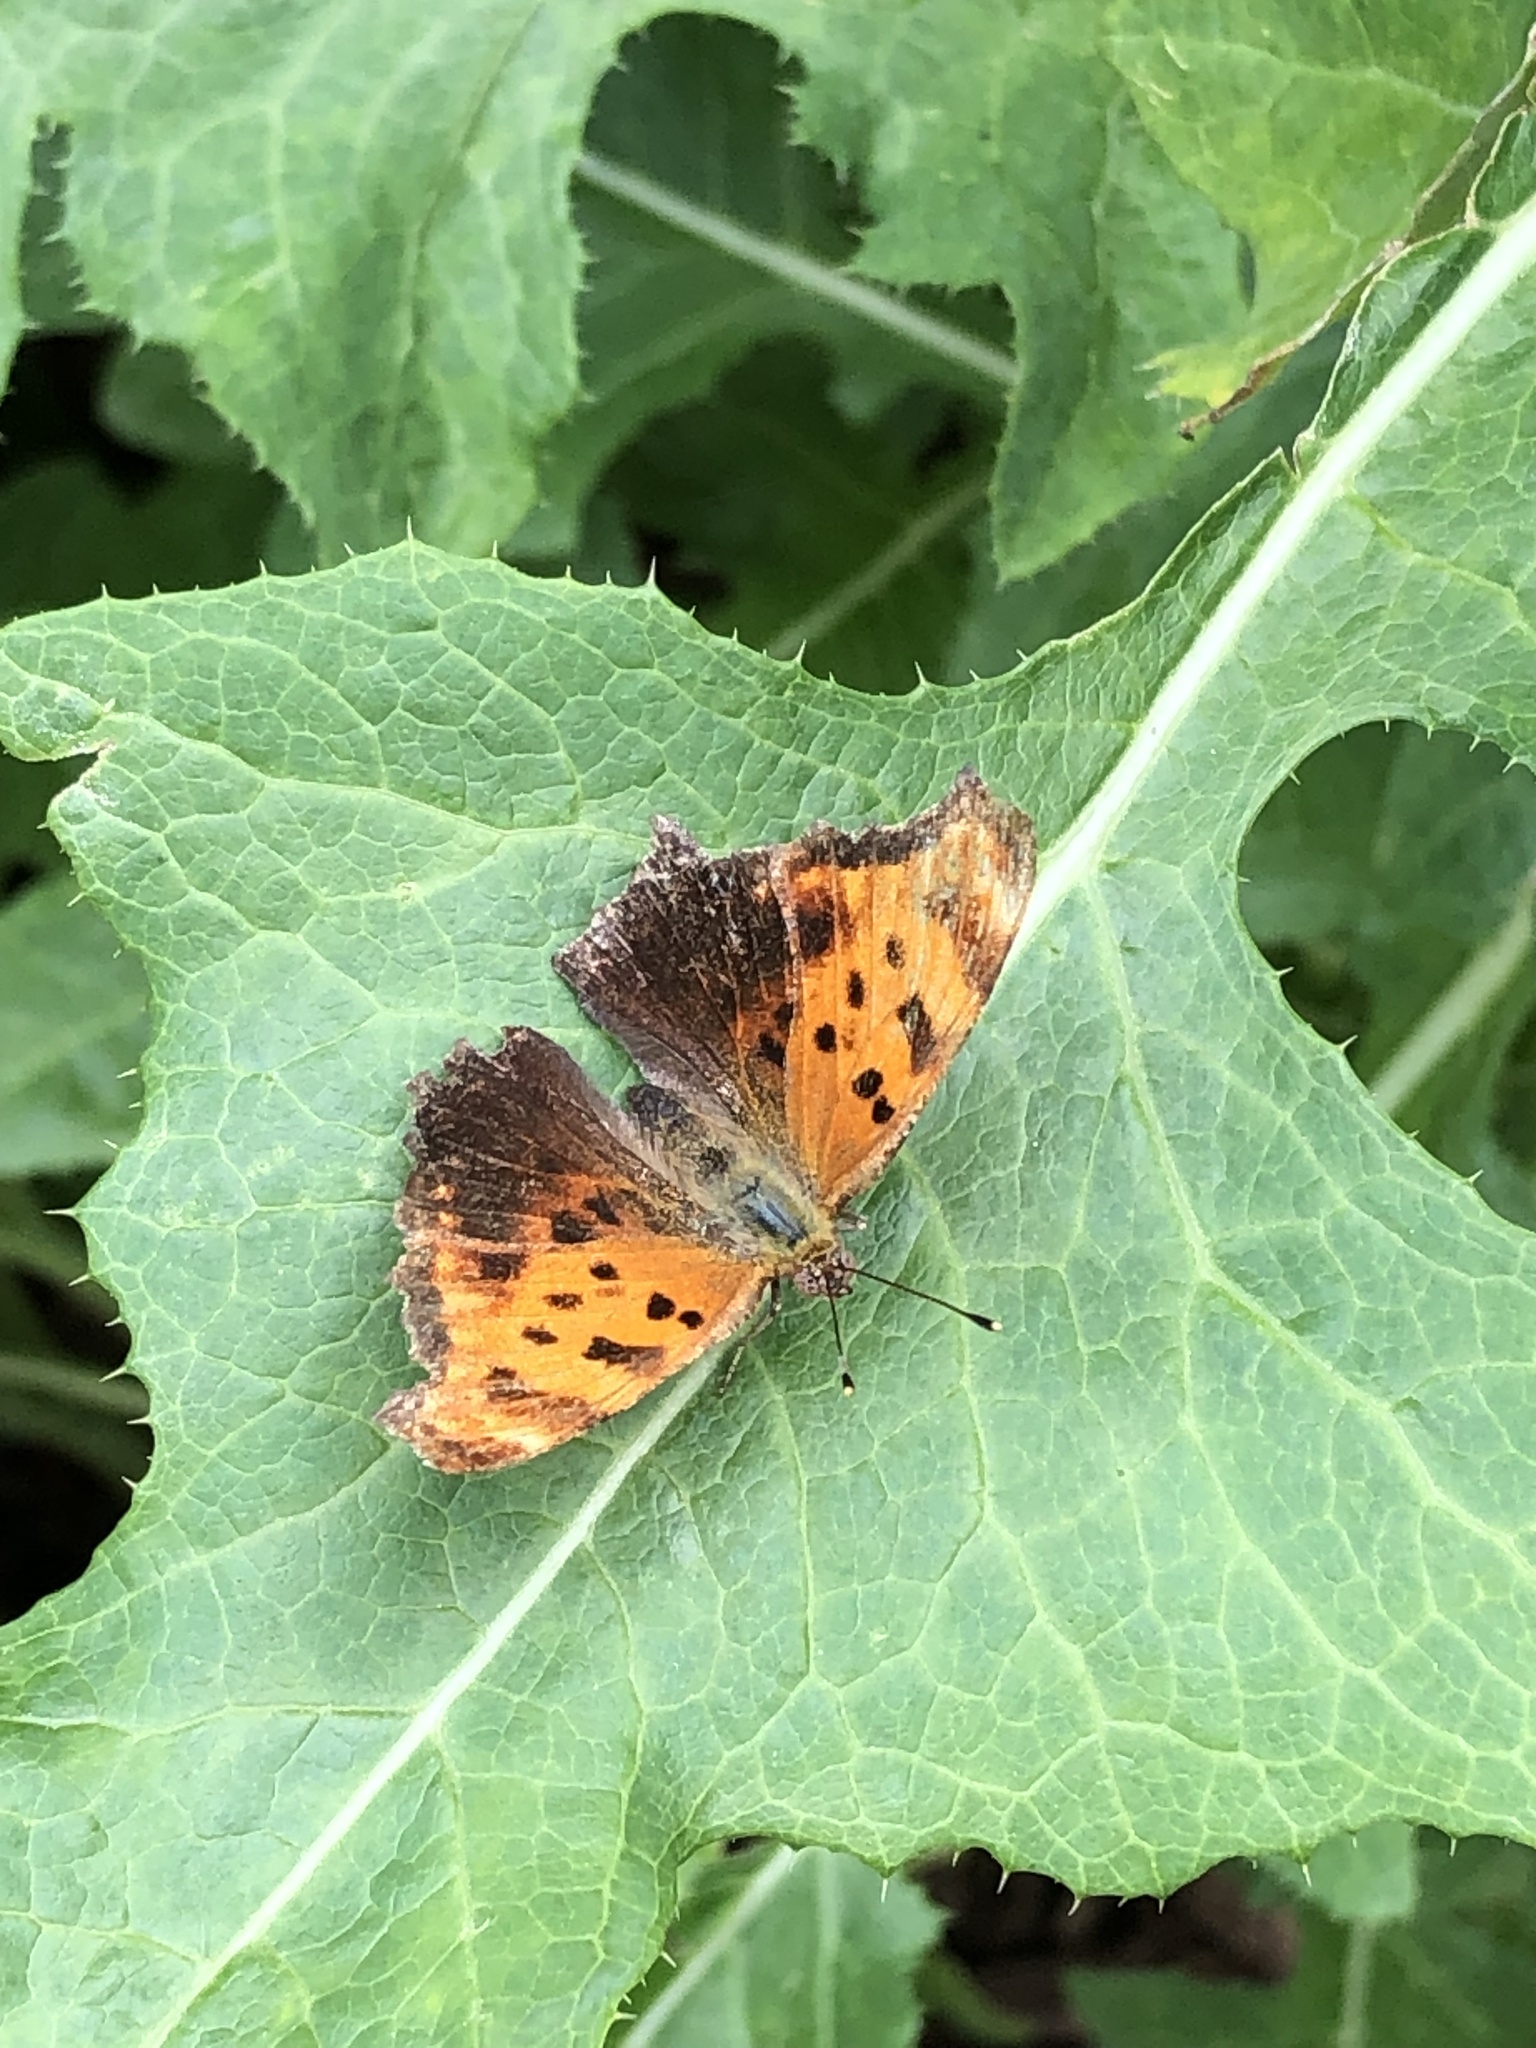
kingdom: Animalia
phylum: Arthropoda
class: Insecta
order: Lepidoptera
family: Nymphalidae
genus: Polygonia
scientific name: Polygonia comma
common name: Eastern comma
